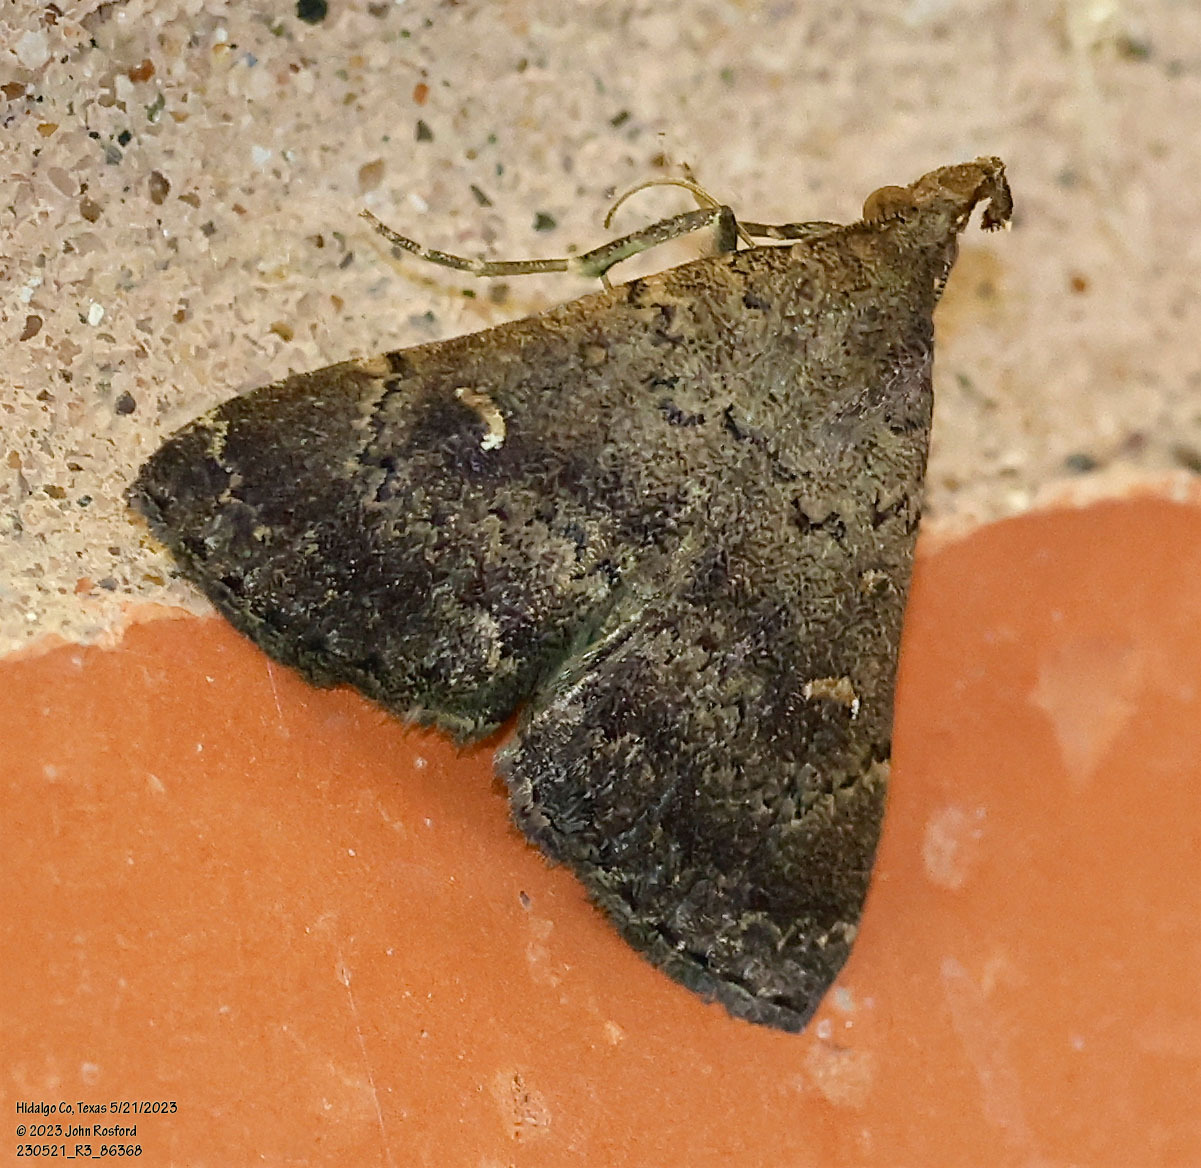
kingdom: Animalia
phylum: Arthropoda
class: Insecta
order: Lepidoptera
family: Erebidae
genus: Hypenula
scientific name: Hypenula cacuminalis
